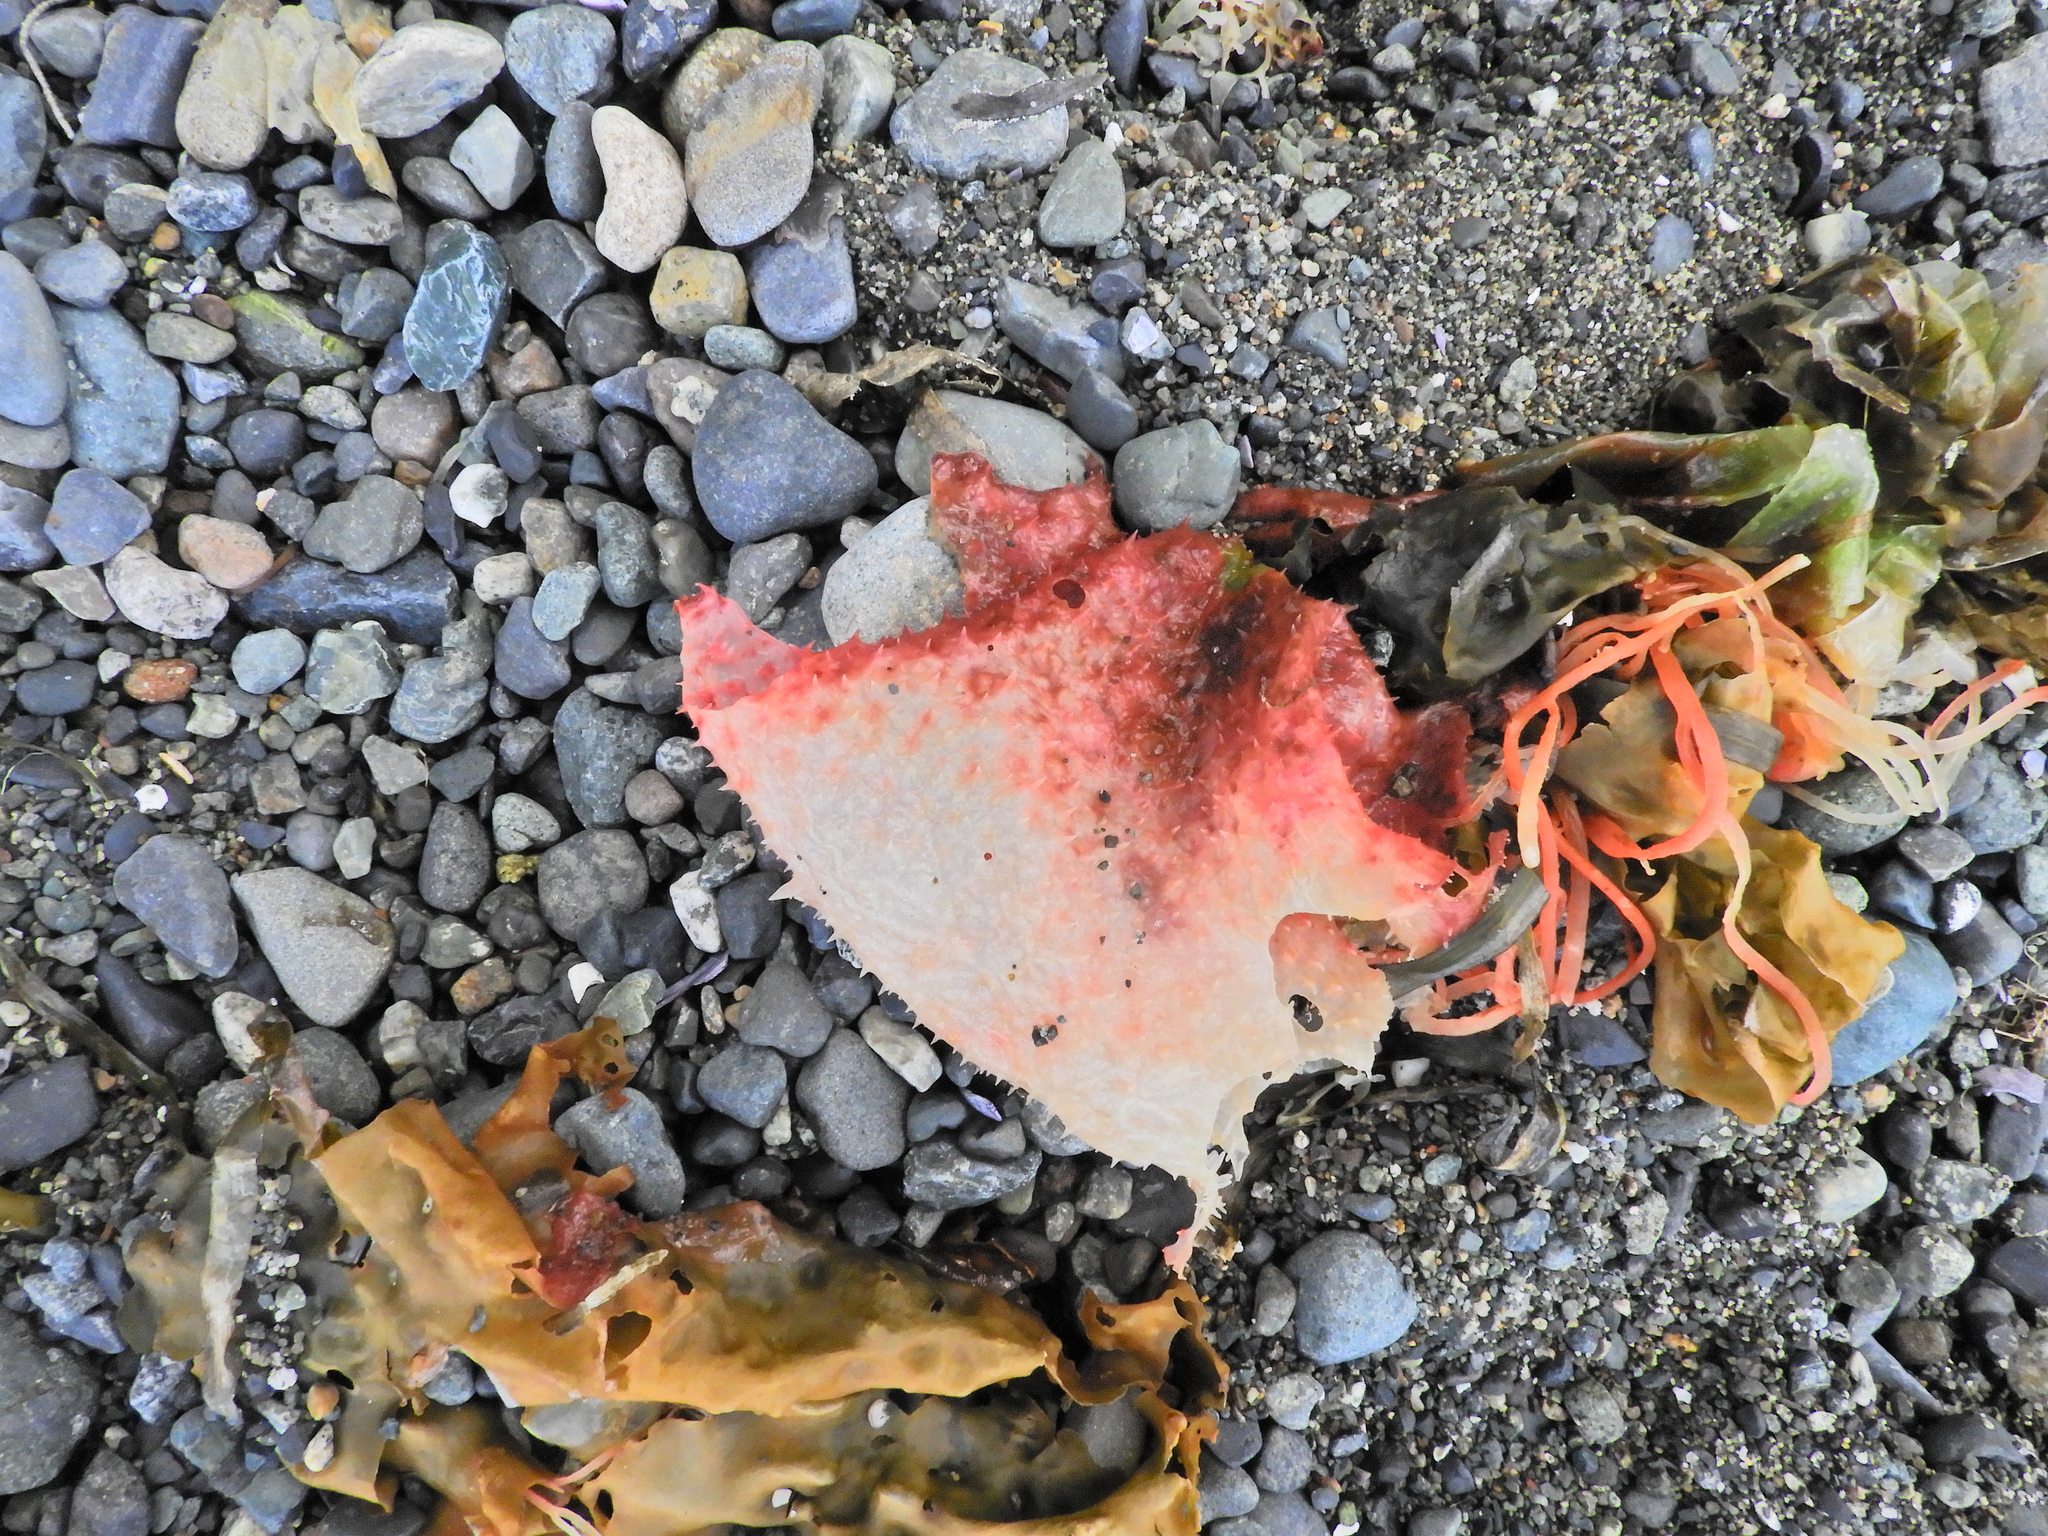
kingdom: Plantae
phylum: Rhodophyta
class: Florideophyceae
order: Gigartinales
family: Gigartinaceae
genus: Chondracanthus
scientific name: Chondracanthus exasperatus
